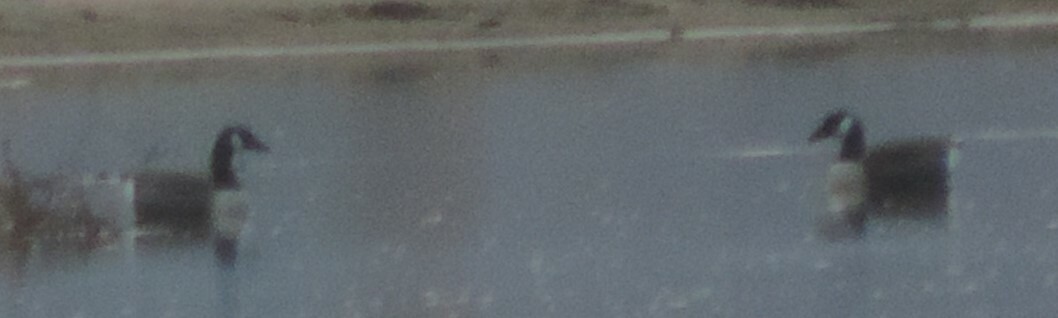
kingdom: Animalia
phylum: Chordata
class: Aves
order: Anseriformes
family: Anatidae
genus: Branta
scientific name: Branta canadensis
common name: Canada goose
